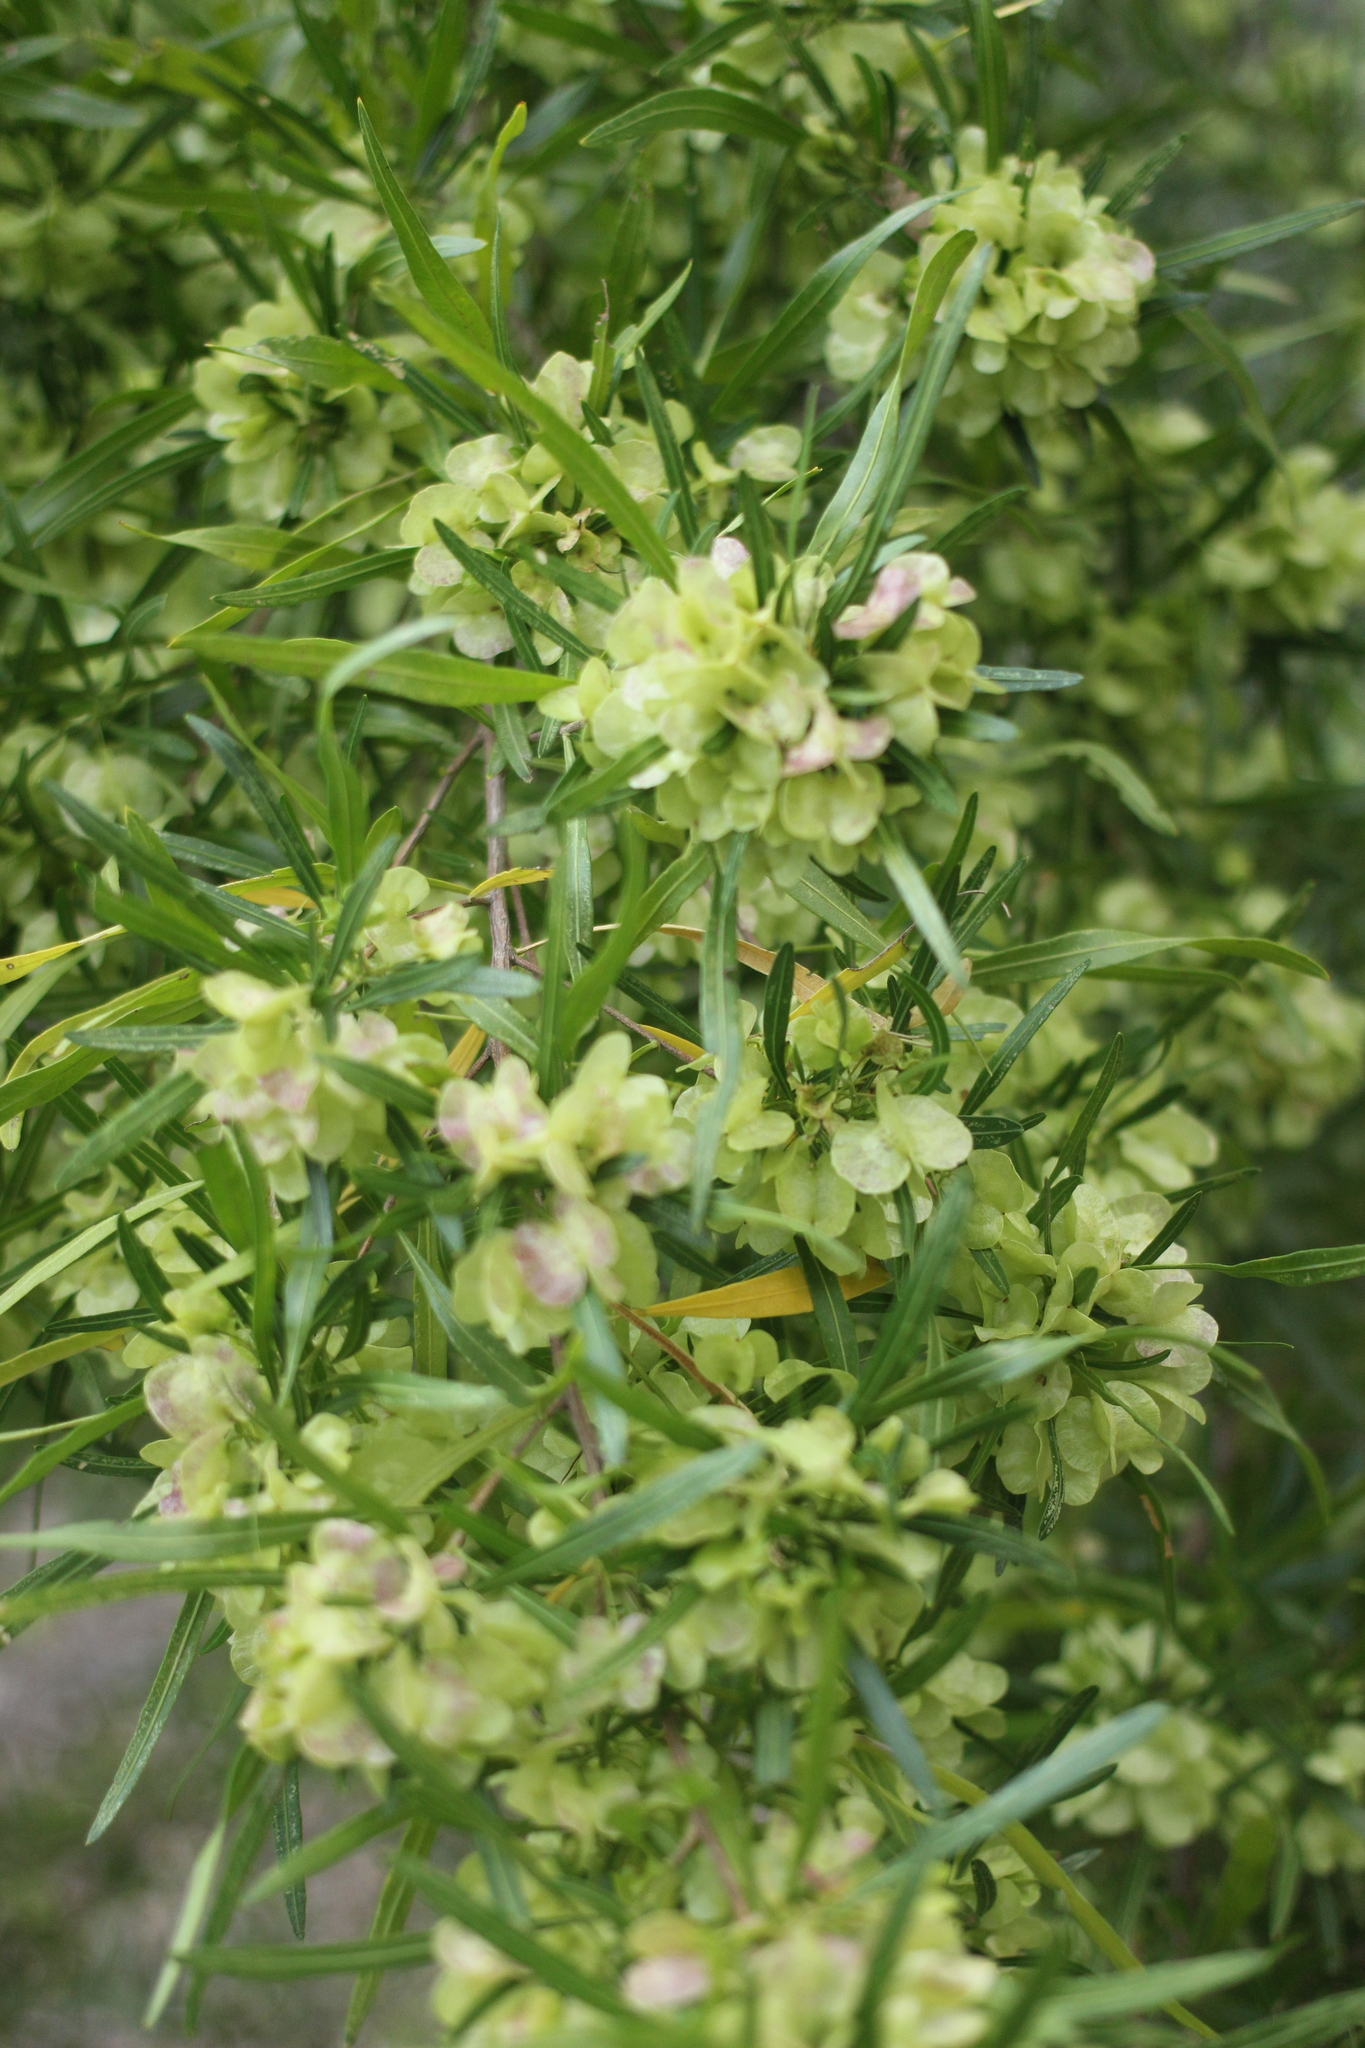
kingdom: Plantae
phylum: Tracheophyta
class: Magnoliopsida
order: Sapindales
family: Sapindaceae
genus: Dodonaea
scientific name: Dodonaea viscosa
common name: Hopbush
